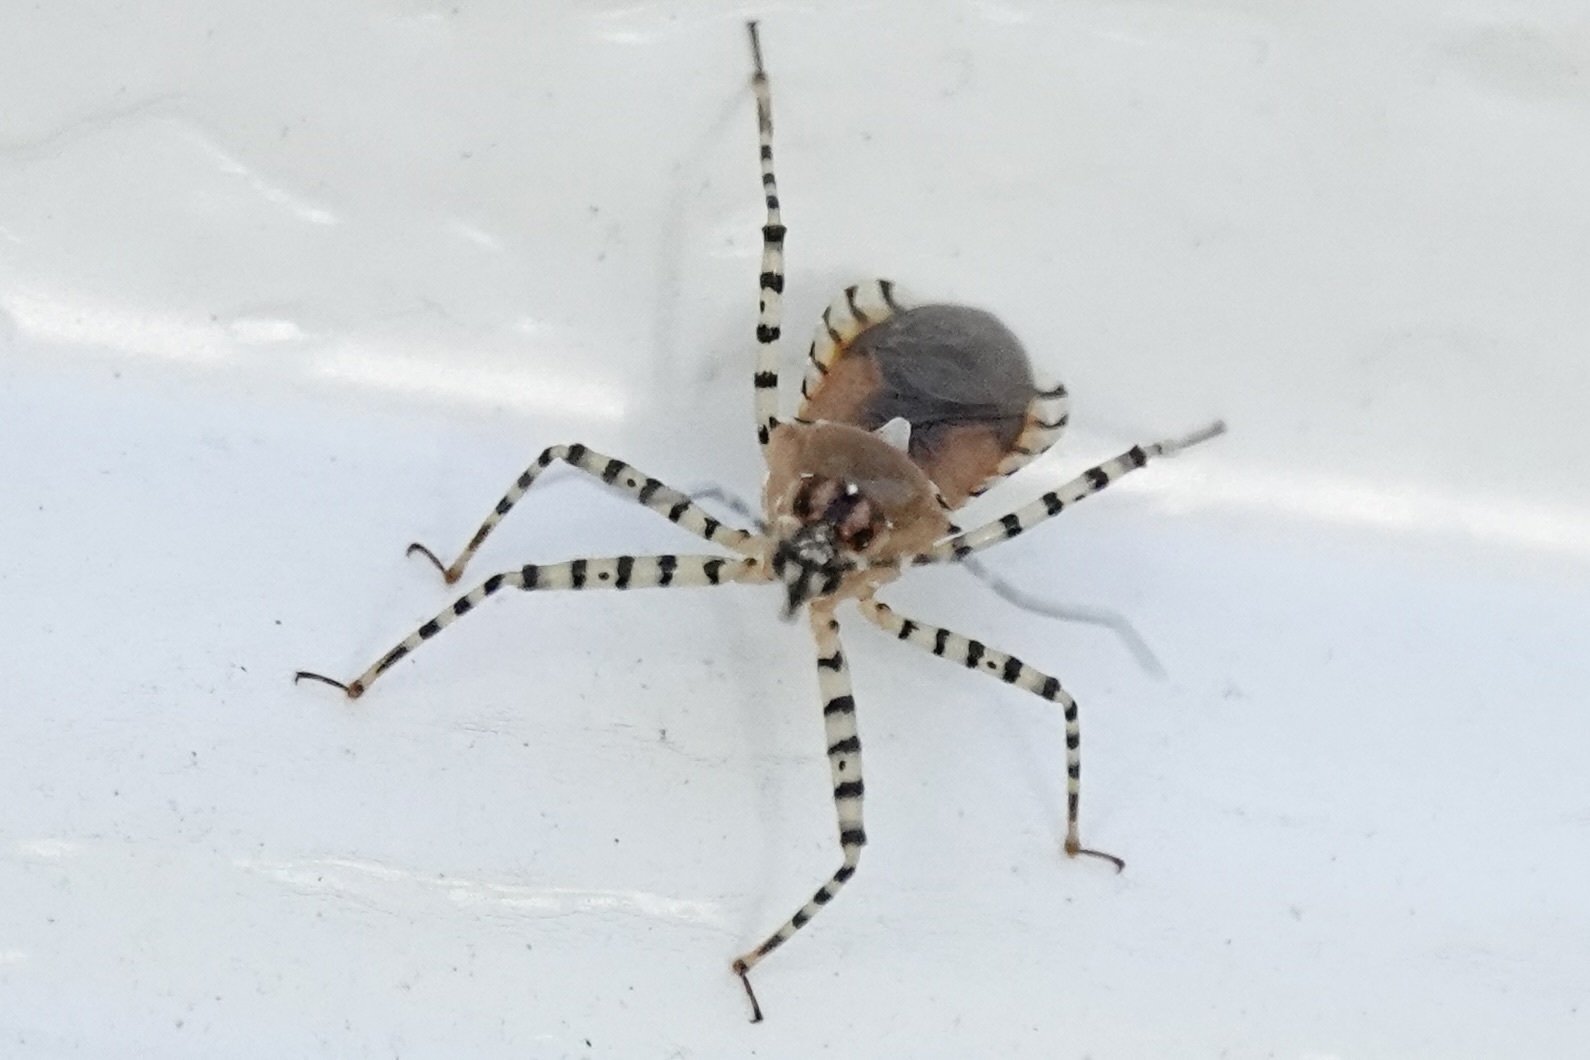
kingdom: Animalia
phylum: Arthropoda
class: Insecta
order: Hemiptera
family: Reduviidae
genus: Pselliopus
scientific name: Pselliopus cinctus
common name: Ringed assassin bug
